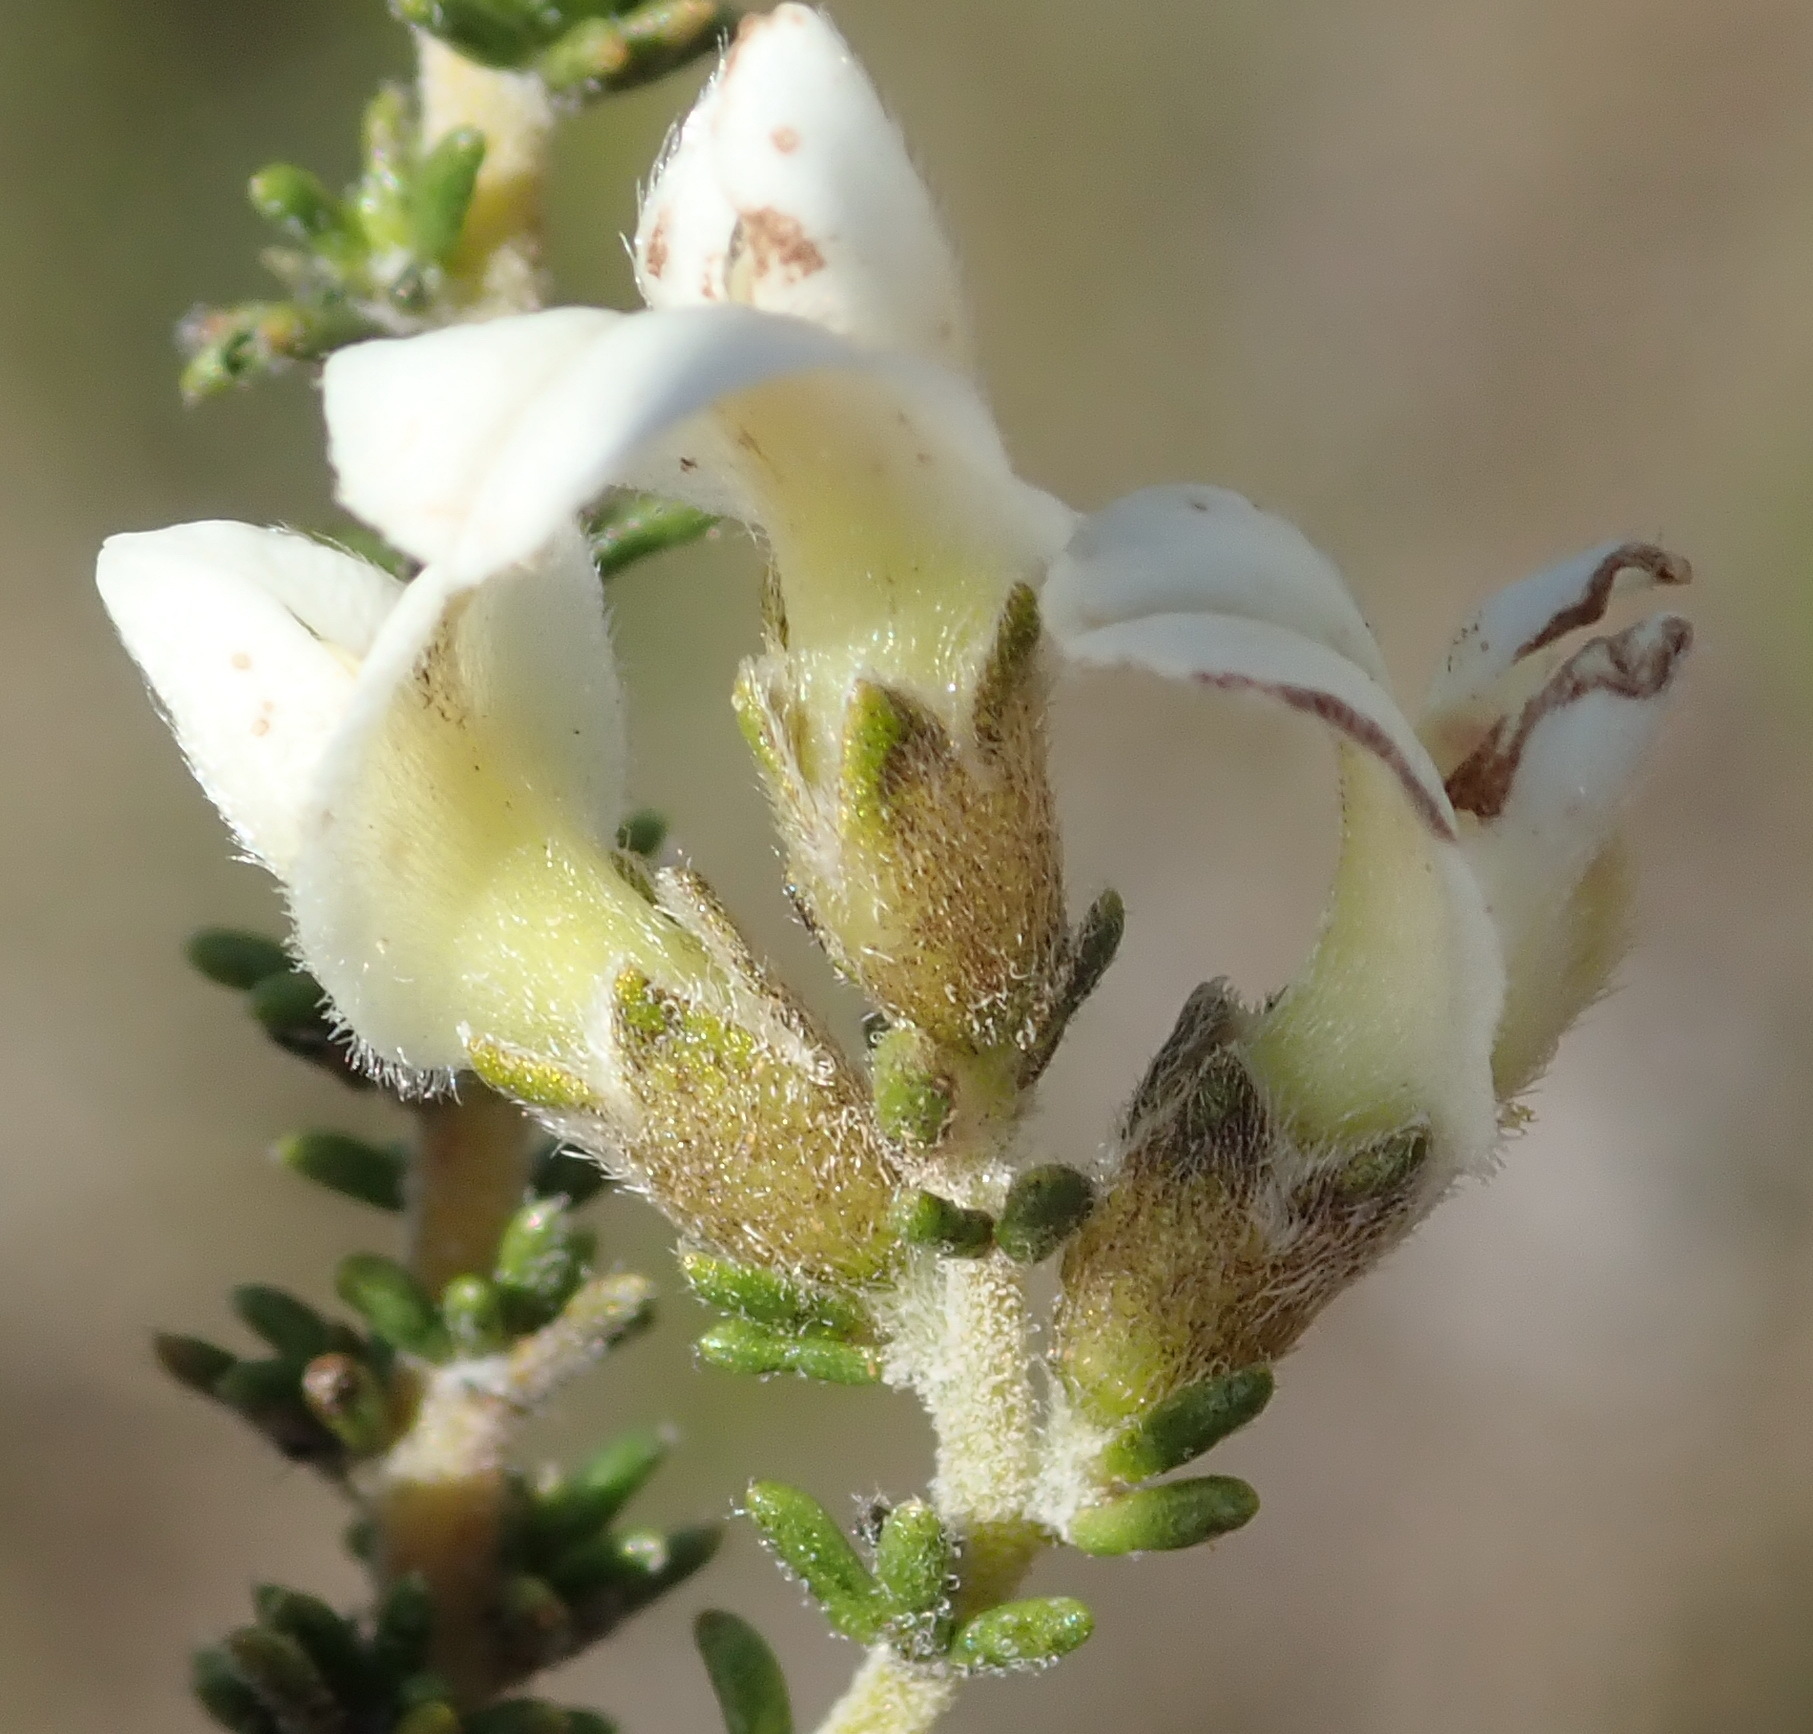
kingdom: Plantae
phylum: Tracheophyta
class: Magnoliopsida
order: Fabales
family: Fabaceae
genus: Aspalathus
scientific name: Aspalathus hispida
